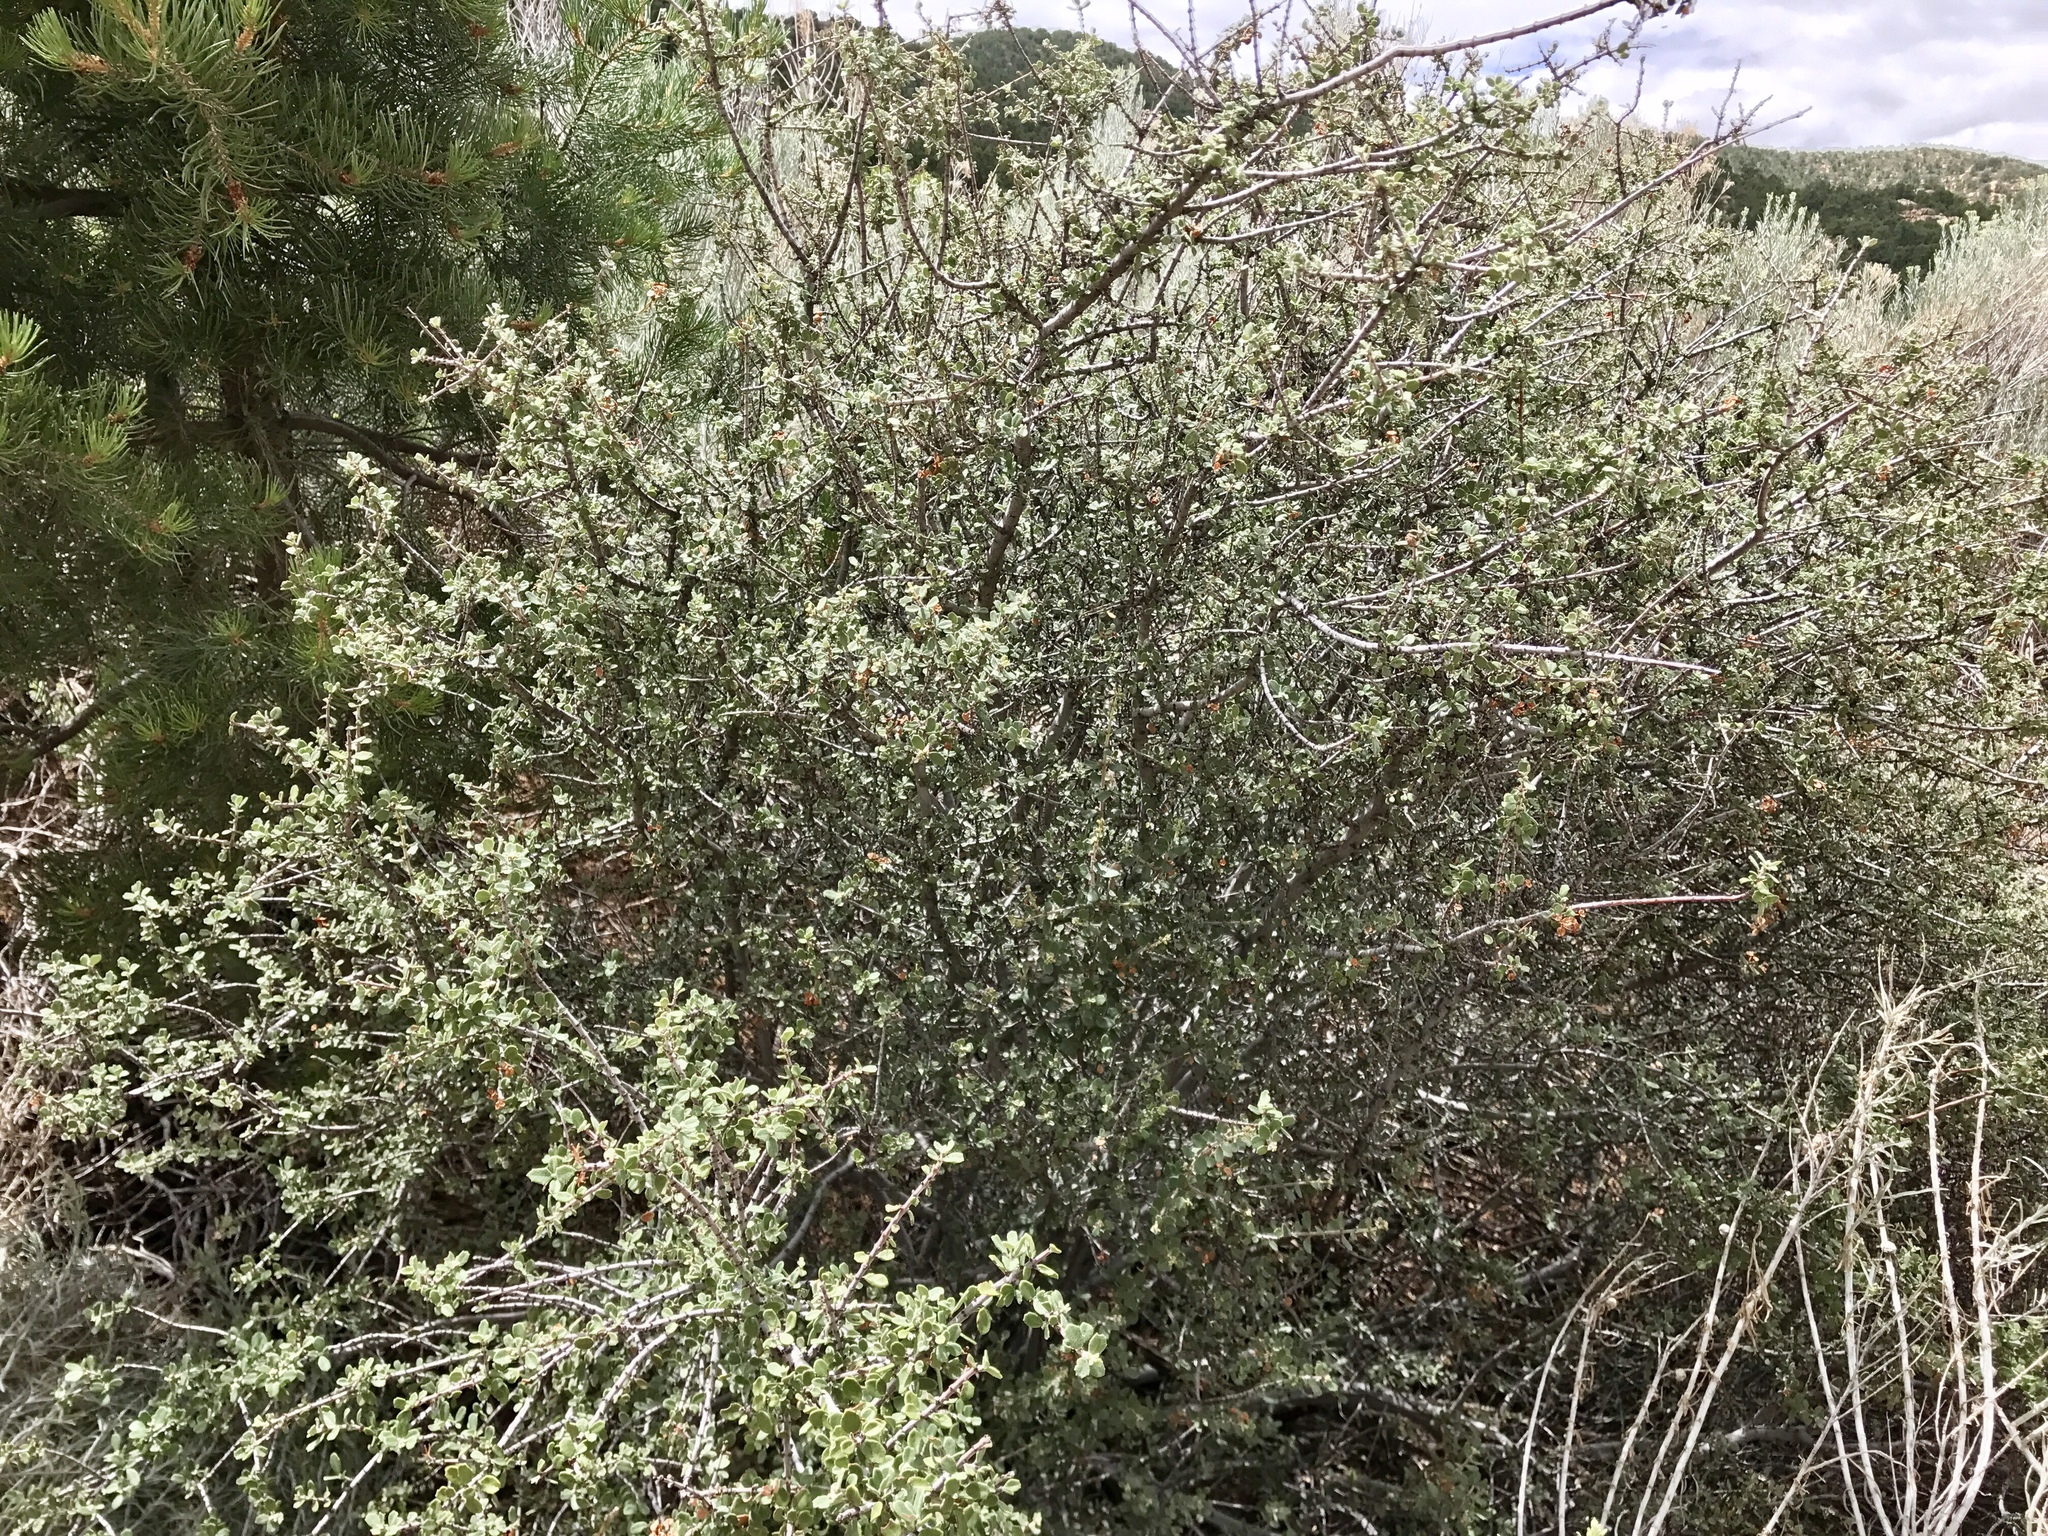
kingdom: Plantae
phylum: Tracheophyta
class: Magnoliopsida
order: Rosales
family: Rhamnaceae
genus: Ceanothus
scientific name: Ceanothus pauciflorus
